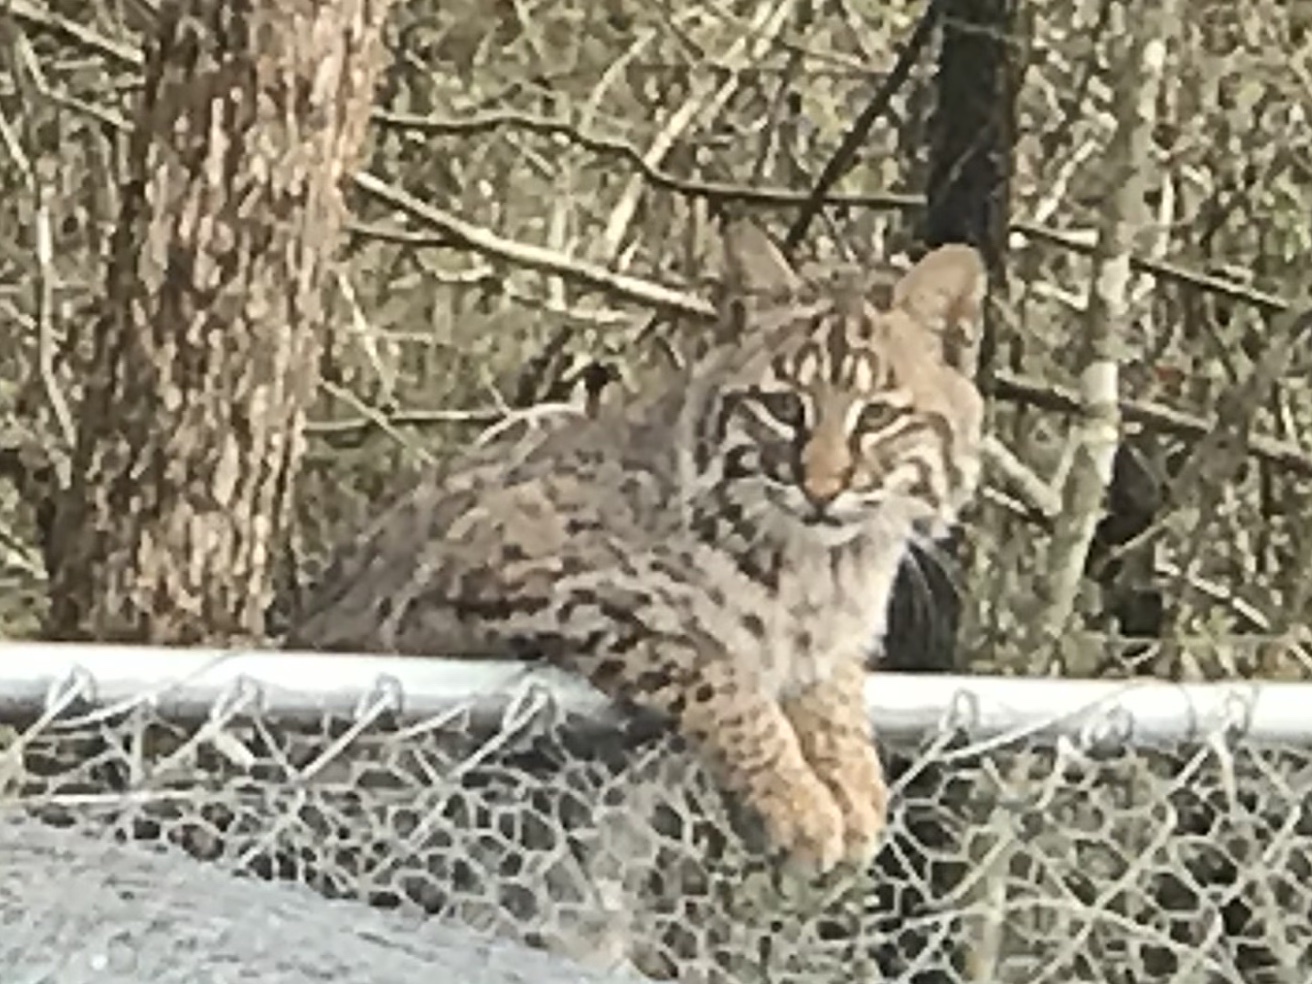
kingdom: Animalia
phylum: Chordata
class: Mammalia
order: Carnivora
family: Felidae
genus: Lynx
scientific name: Lynx rufus
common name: Bobcat
